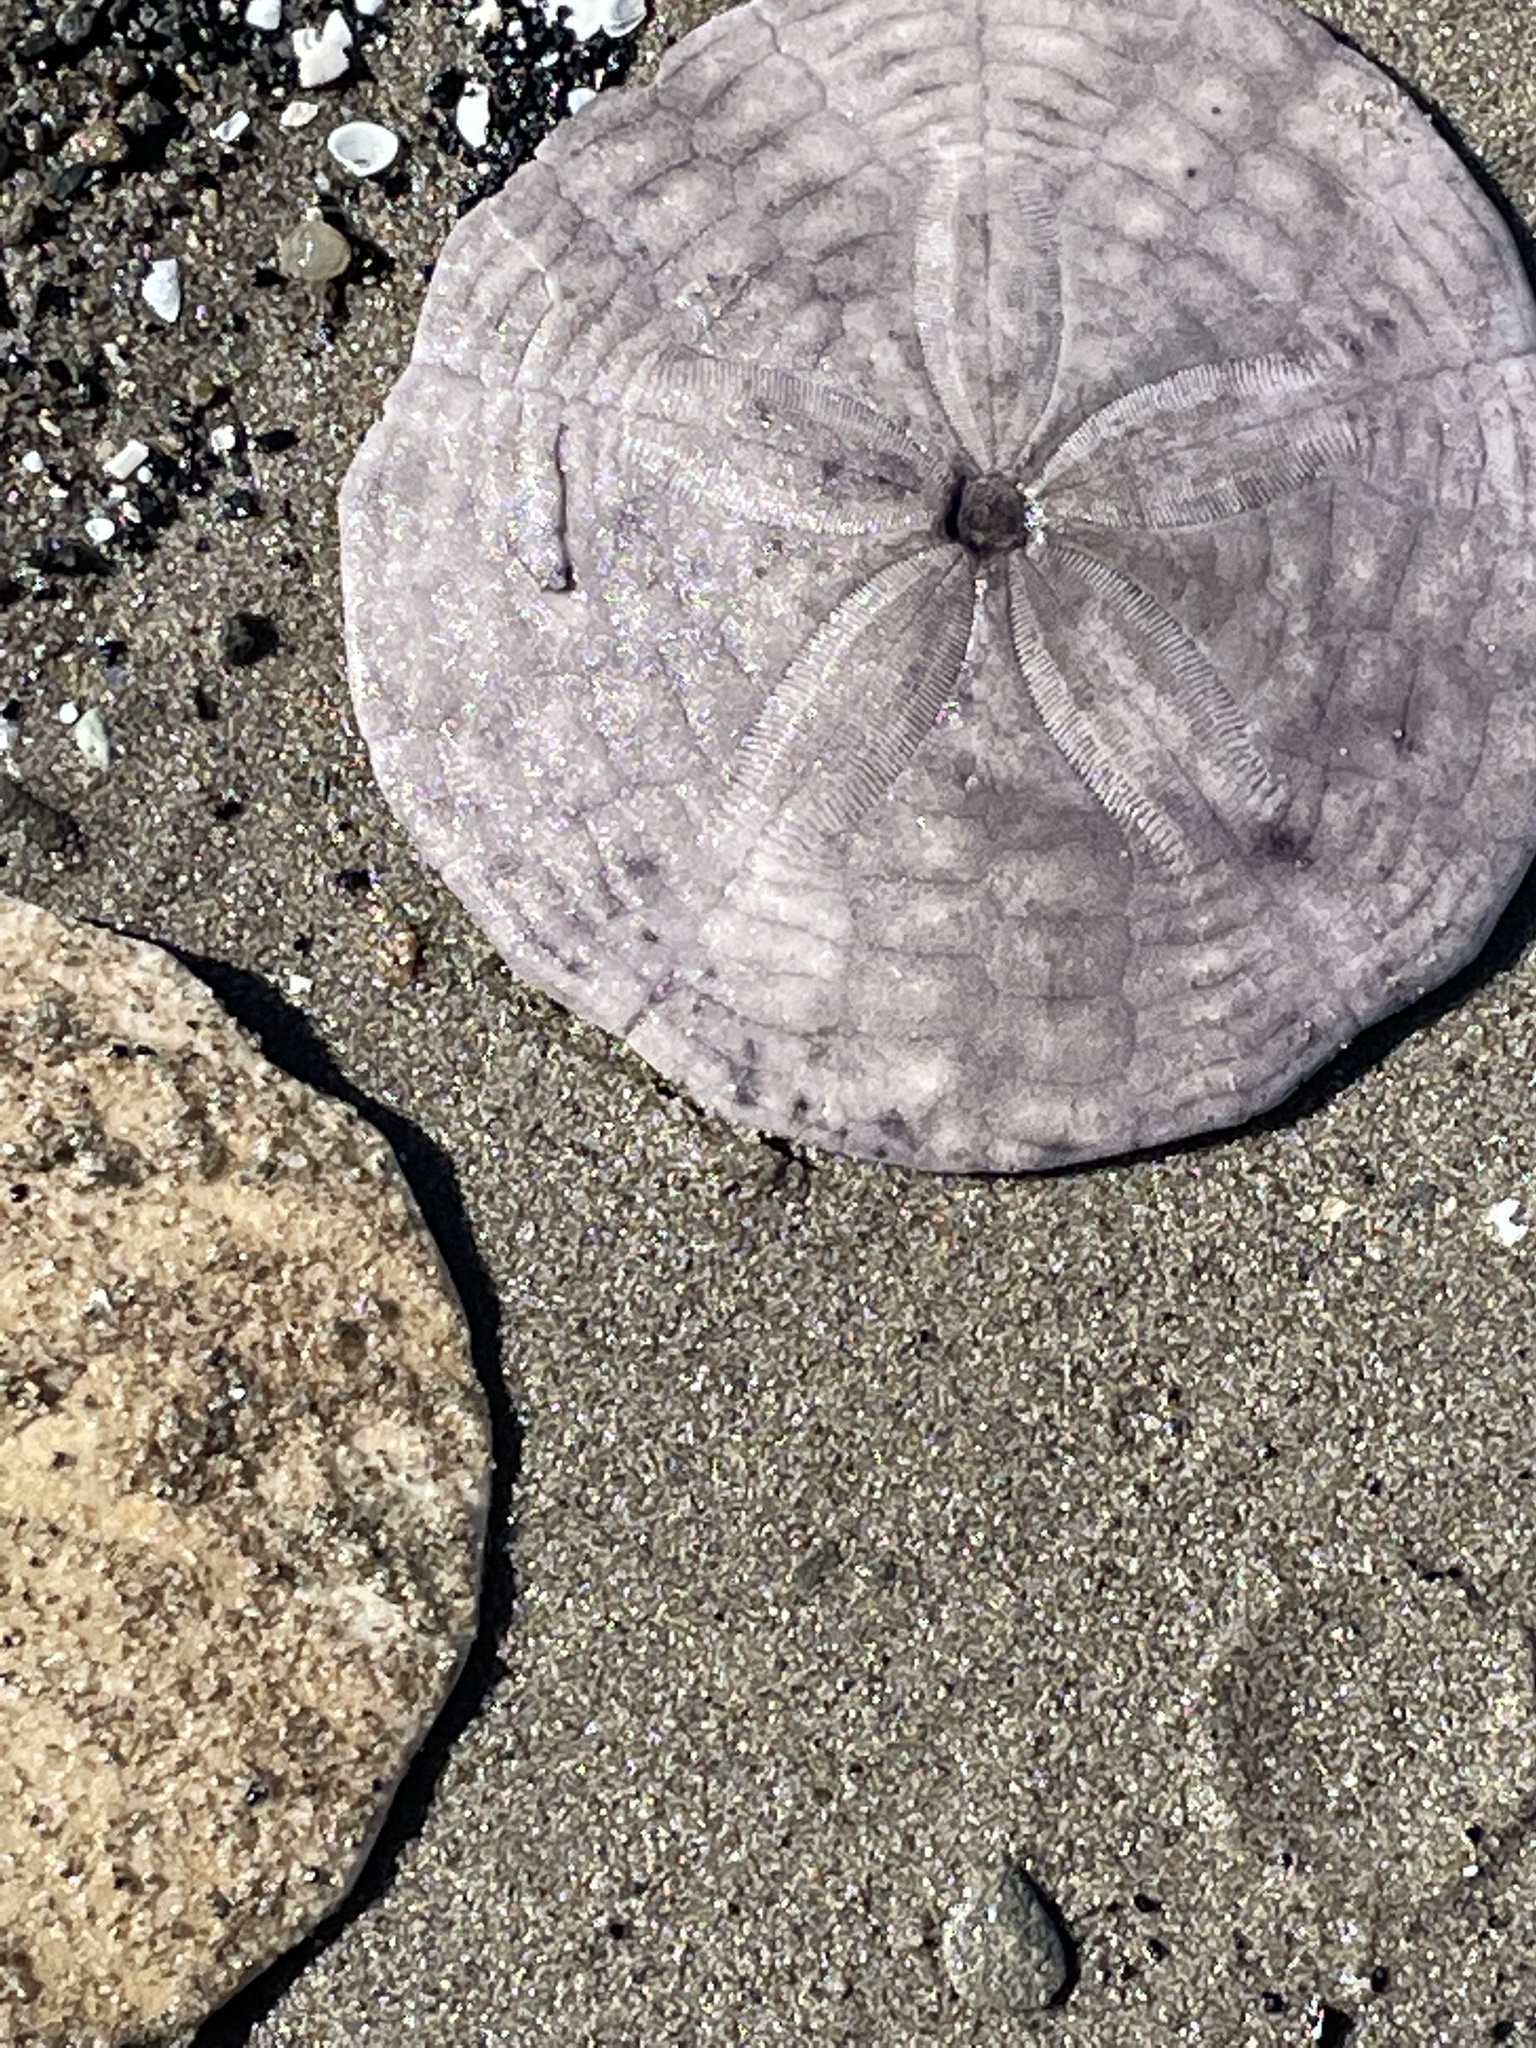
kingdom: Animalia
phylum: Echinodermata
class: Echinoidea
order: Echinolampadacea
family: Echinarachniidae
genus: Echinarachnius
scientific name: Echinarachnius parma
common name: Common sand dollar
